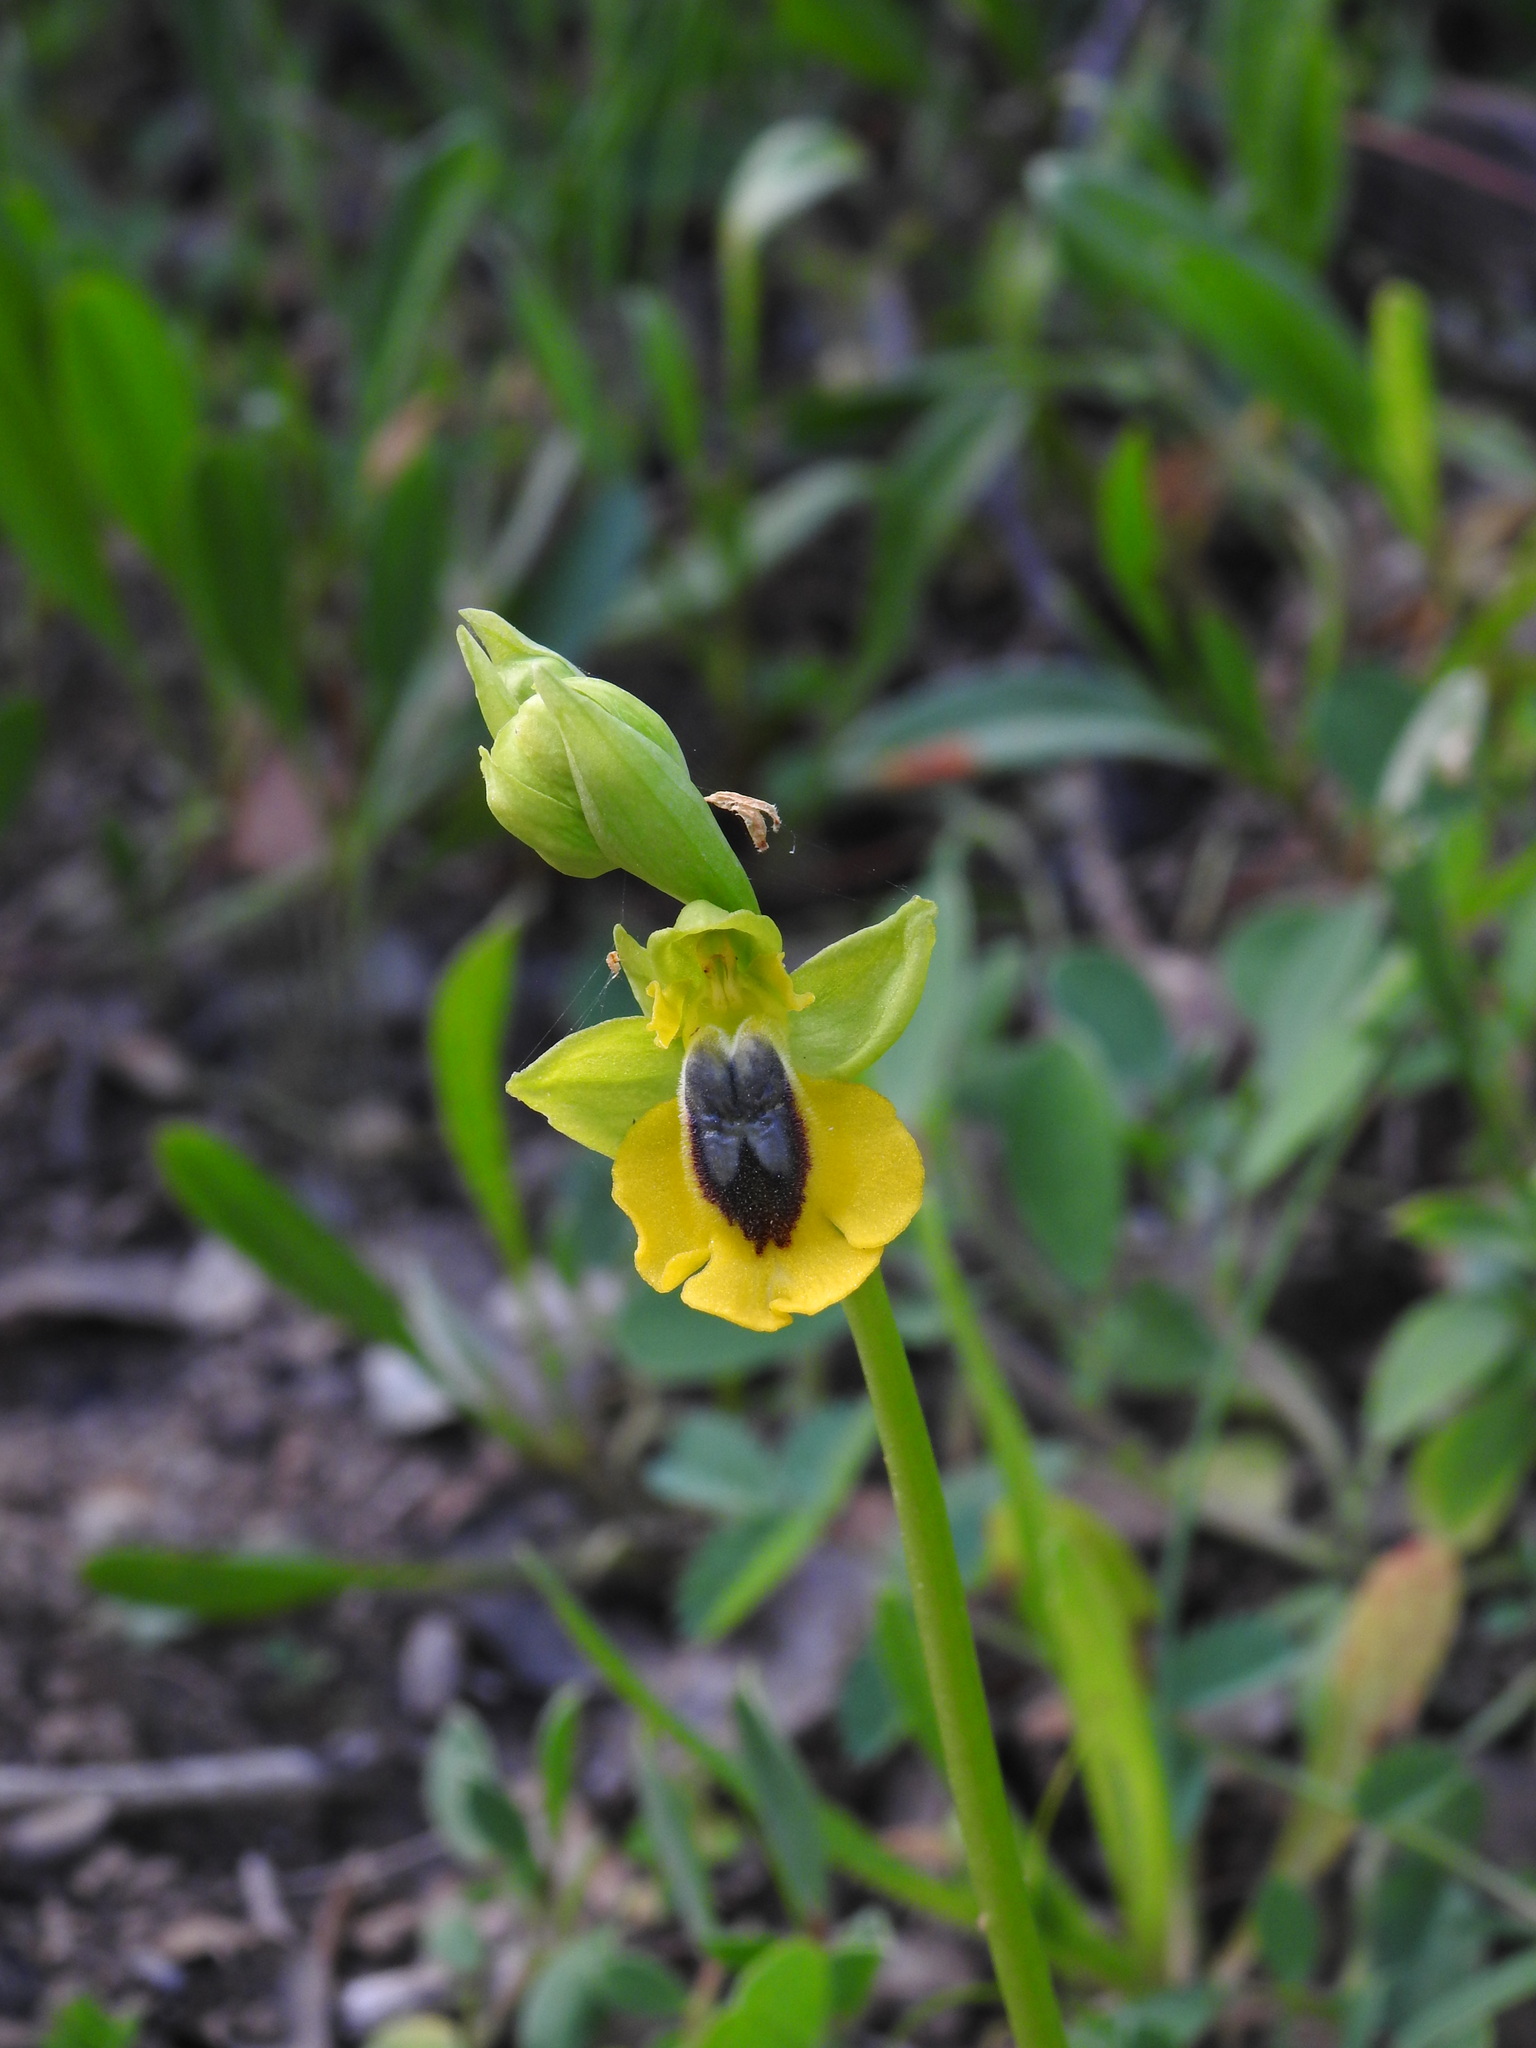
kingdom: Plantae
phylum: Tracheophyta
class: Liliopsida
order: Asparagales
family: Orchidaceae
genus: Ophrys
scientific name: Ophrys lutea
